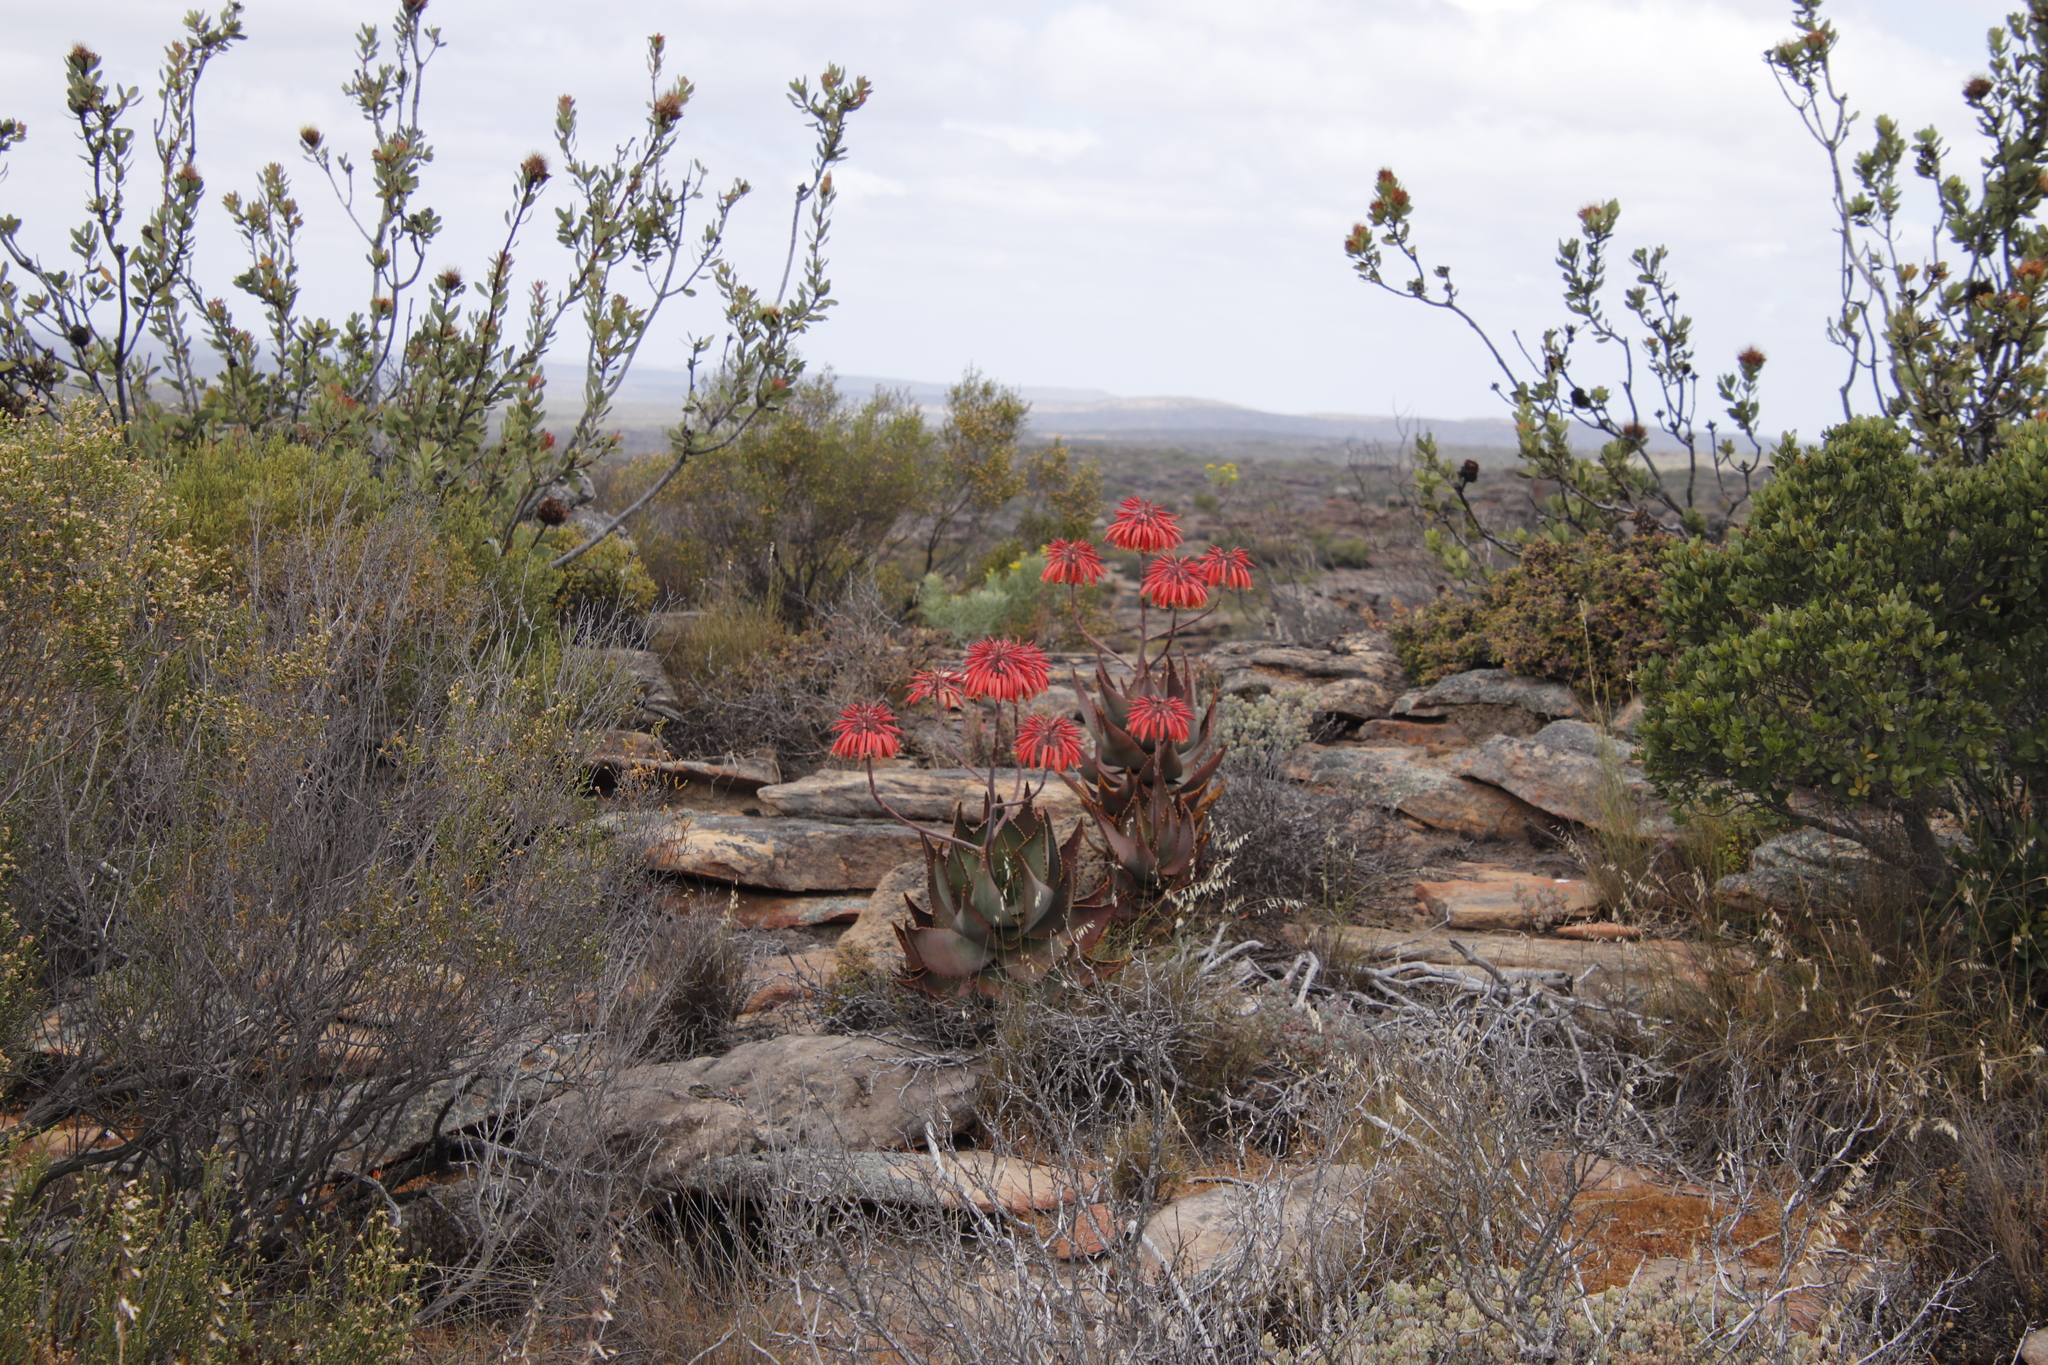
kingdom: Plantae
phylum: Tracheophyta
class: Magnoliopsida
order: Proteales
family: Proteaceae
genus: Protea
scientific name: Protea glabra
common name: Chestnut sugarbush
